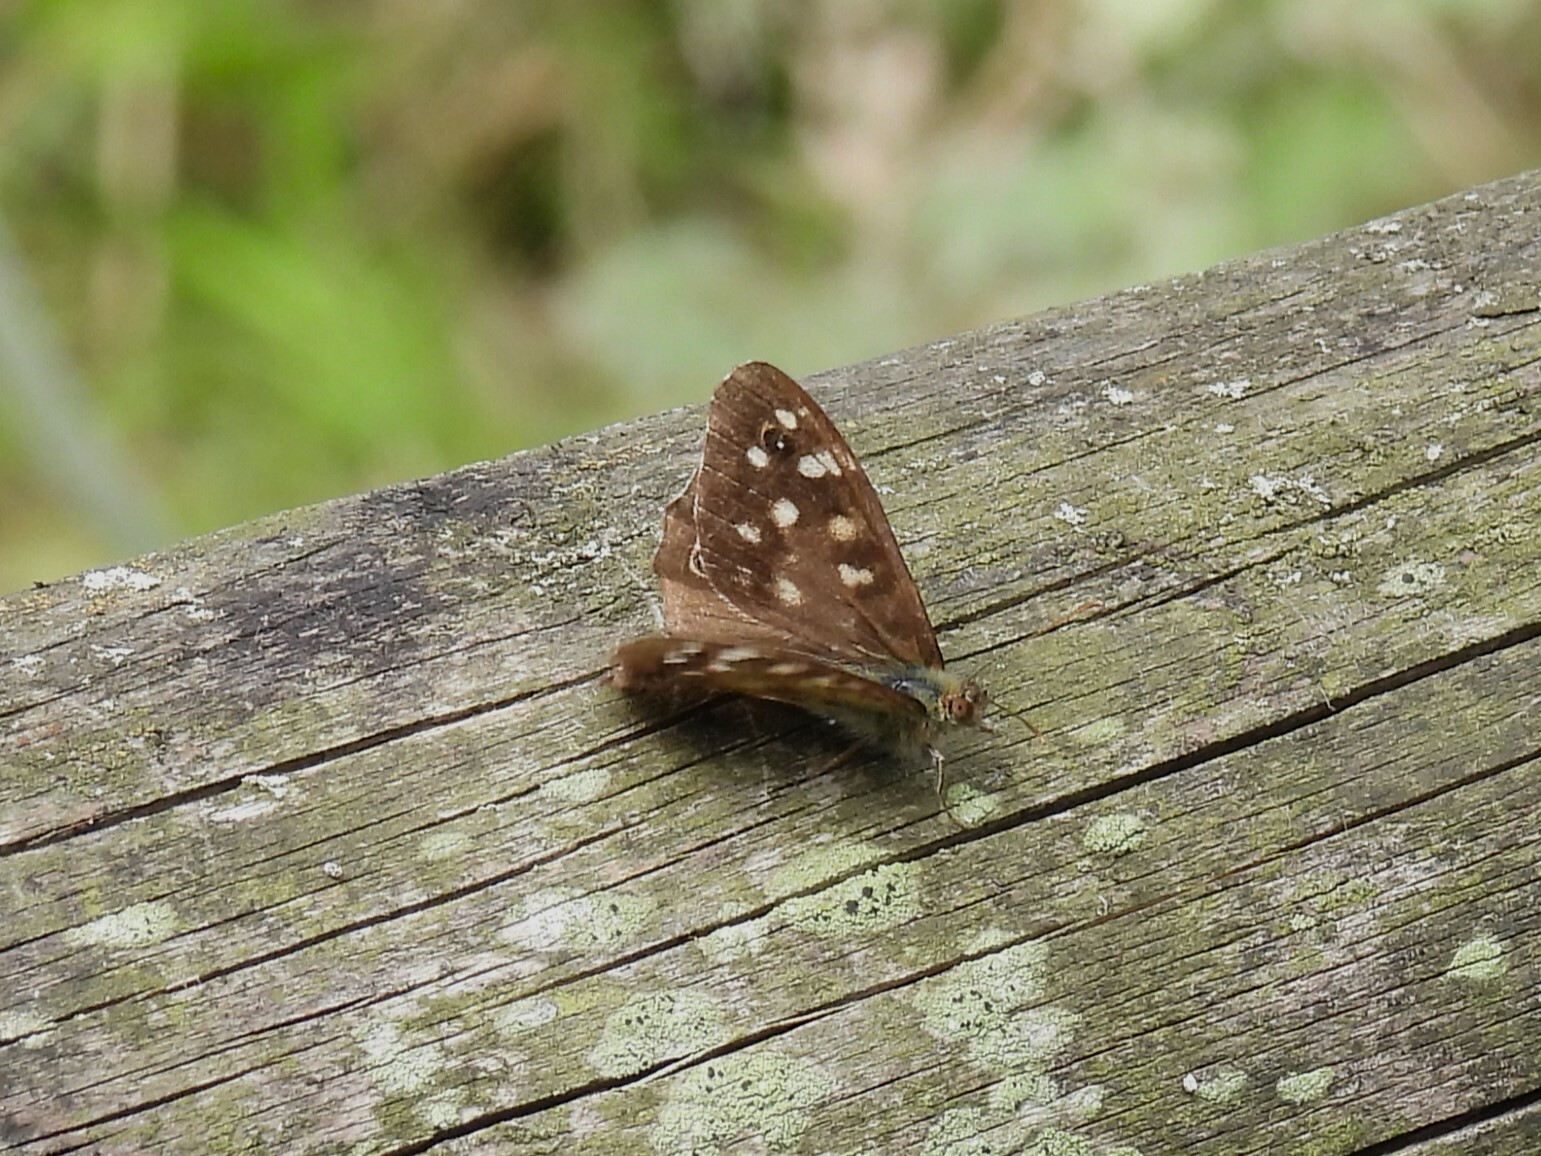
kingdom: Animalia
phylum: Arthropoda
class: Insecta
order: Lepidoptera
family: Nymphalidae
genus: Pararge
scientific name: Pararge aegeria
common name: Speckled wood
